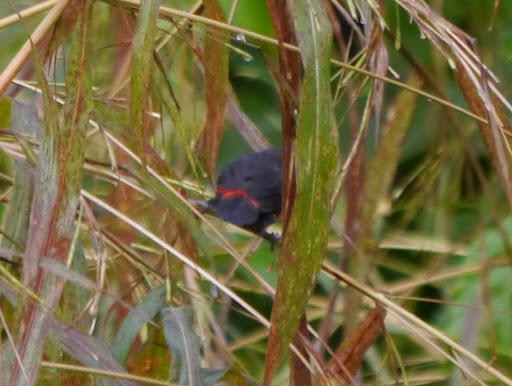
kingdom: Animalia
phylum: Chordata
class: Aves
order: Passeriformes
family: Estrildidae
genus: Spermophaga
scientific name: Spermophaga haematina
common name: Western bluebill
